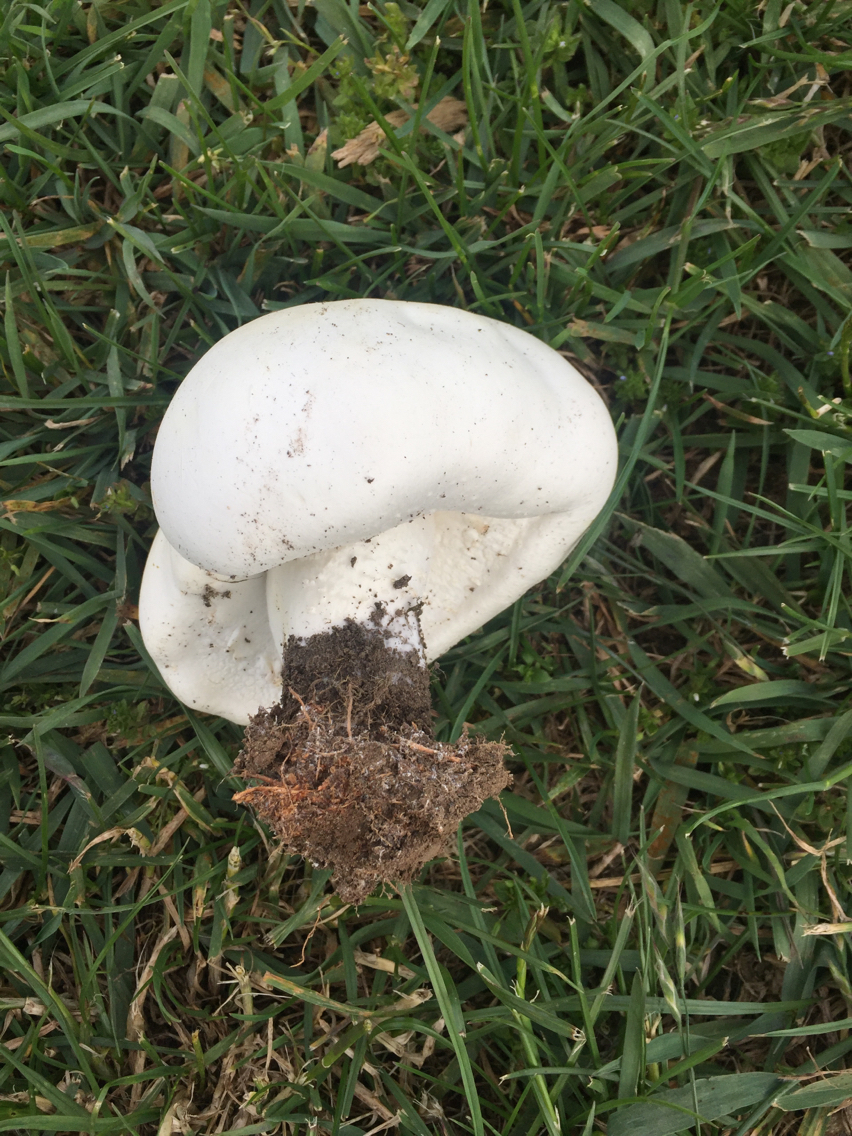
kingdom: Fungi
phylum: Basidiomycota
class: Agaricomycetes
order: Agaricales
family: Agaricaceae
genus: Agaricus
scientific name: Agaricus arvensis
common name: Horse mushroom
